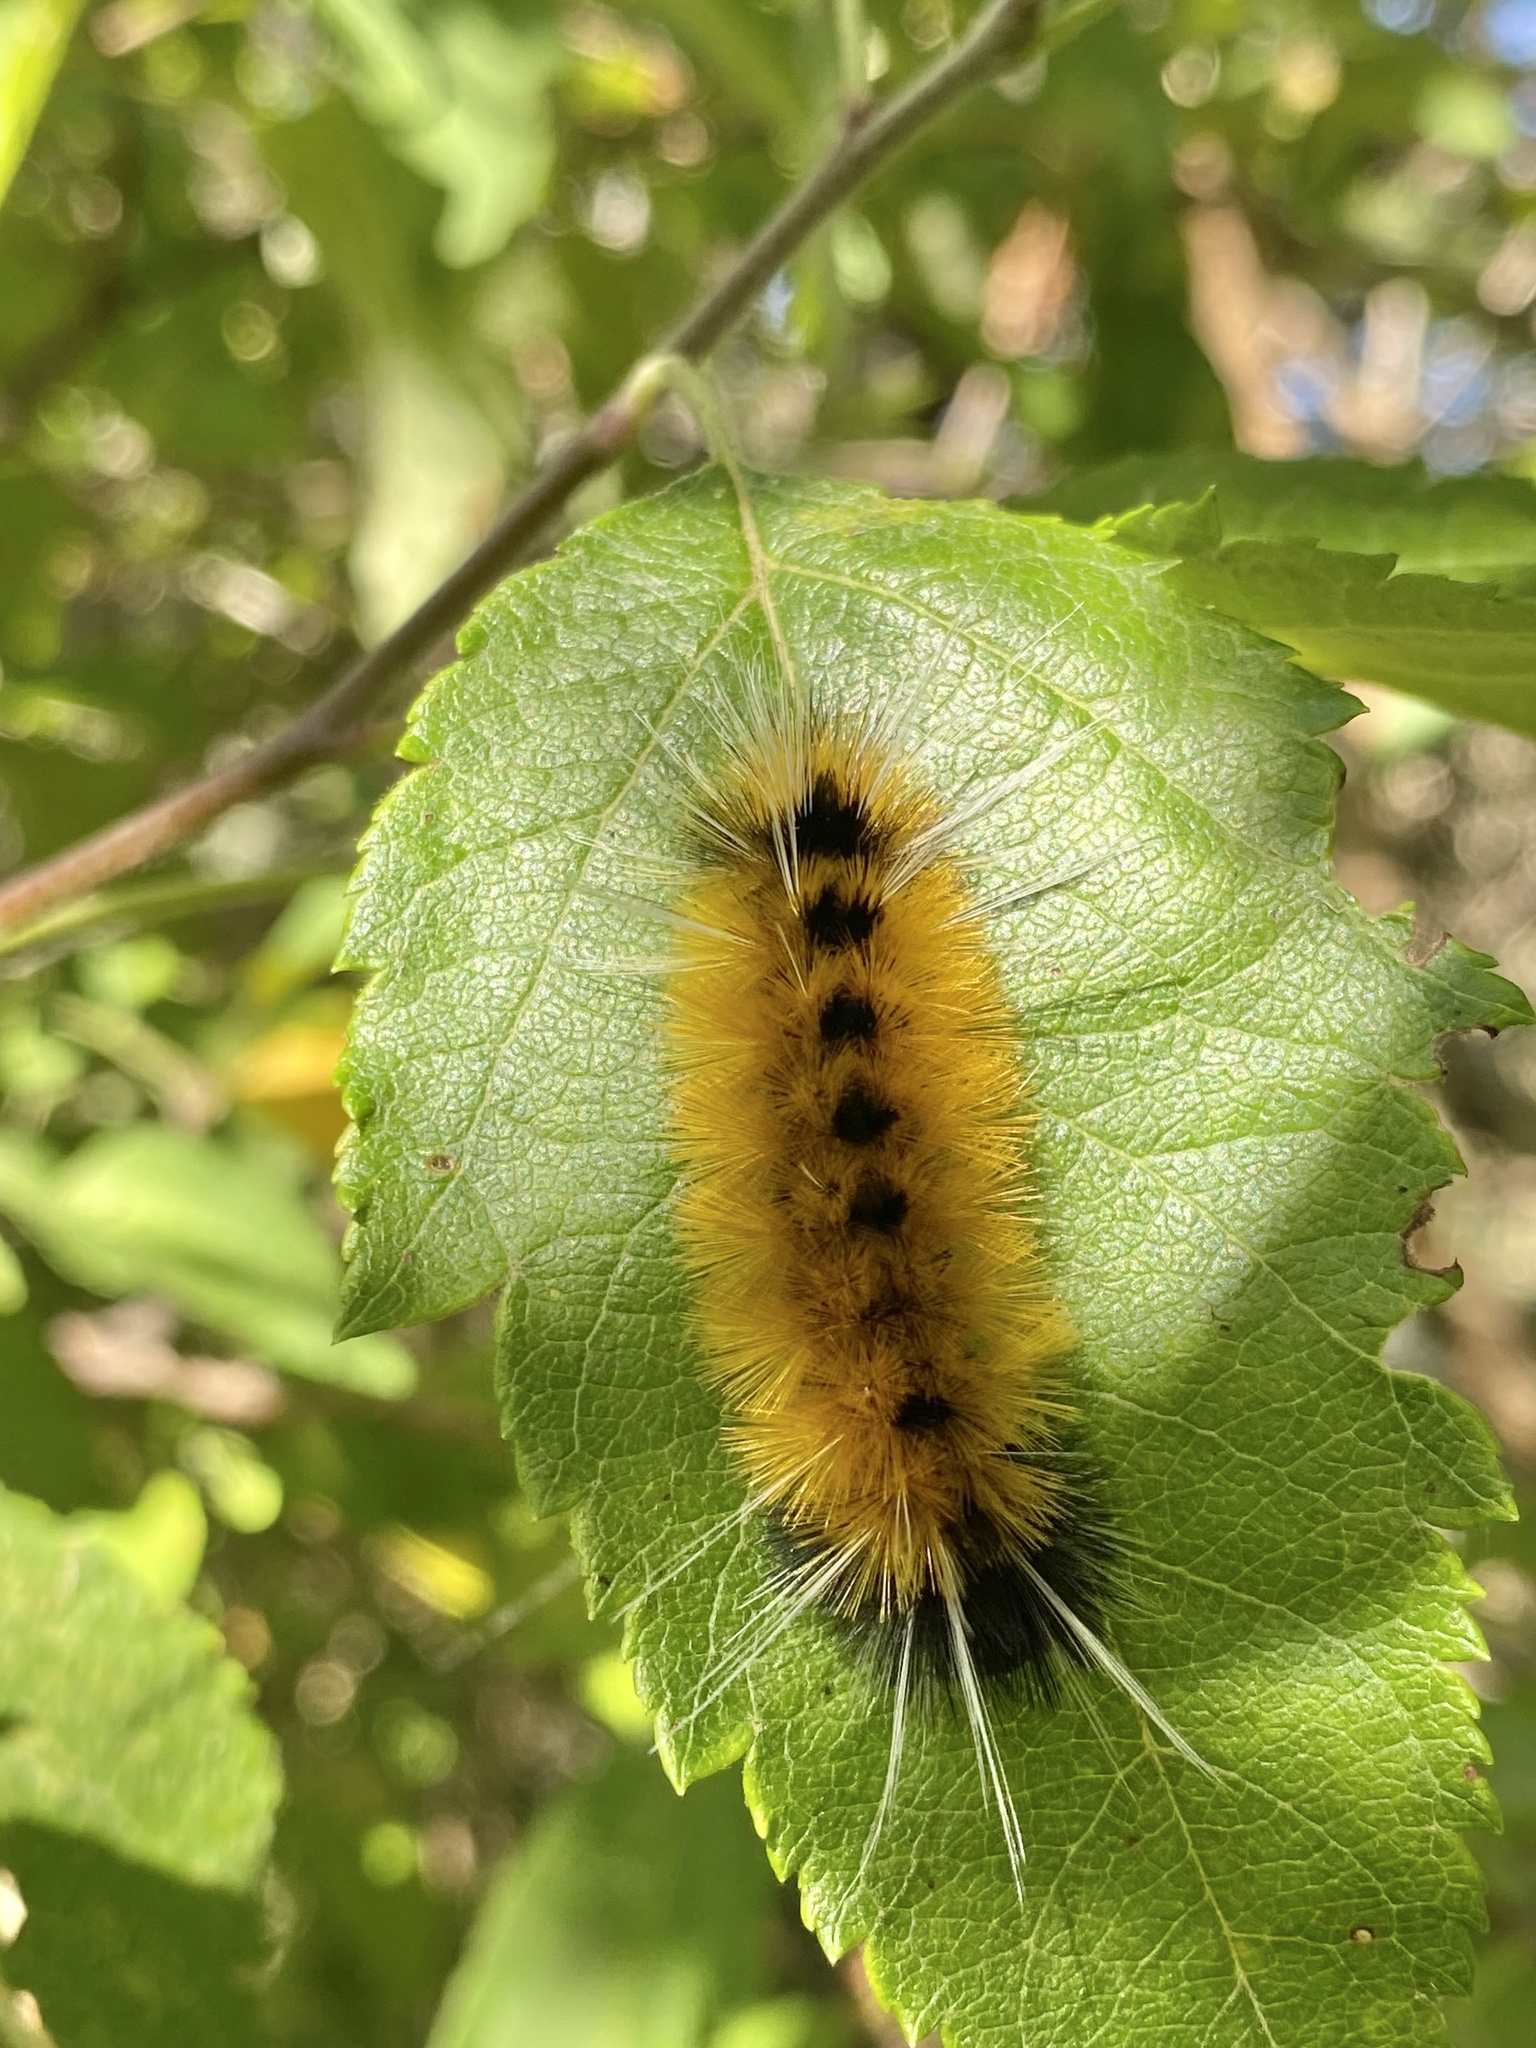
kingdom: Animalia
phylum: Arthropoda
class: Insecta
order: Lepidoptera
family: Erebidae
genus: Lophocampa
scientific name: Lophocampa maculata
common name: Spotted tussock moth
